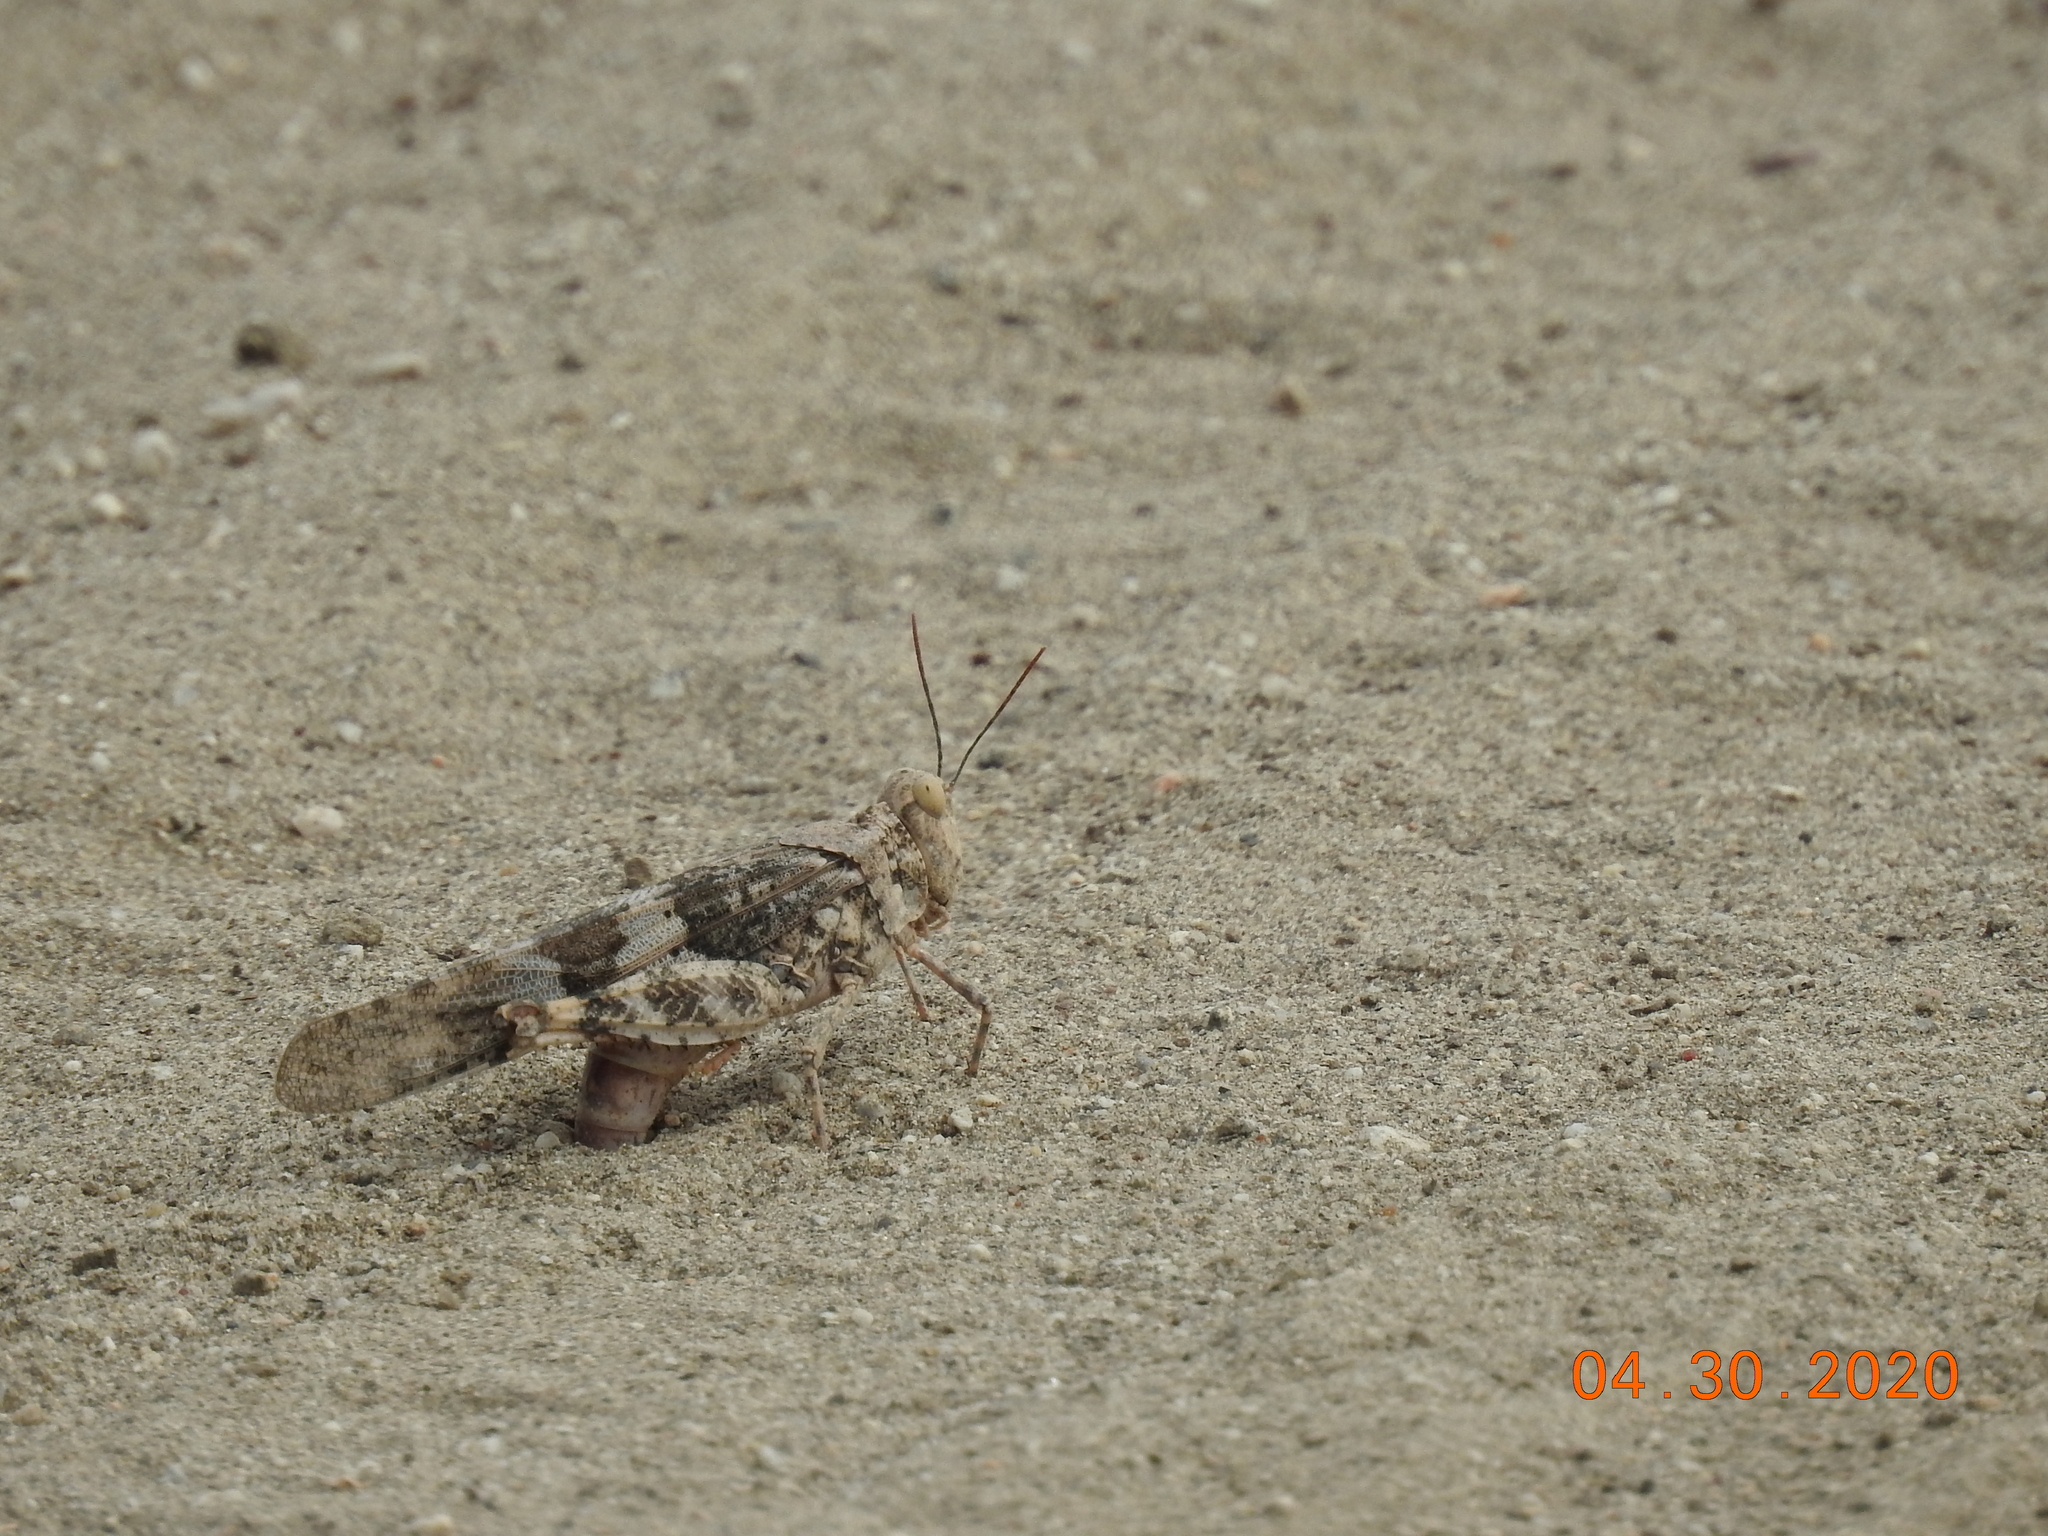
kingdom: Animalia
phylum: Arthropoda
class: Insecta
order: Orthoptera
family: Acrididae
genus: Trimerotropis
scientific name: Trimerotropis pallidipennis
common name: Pallid-winged grasshopper
